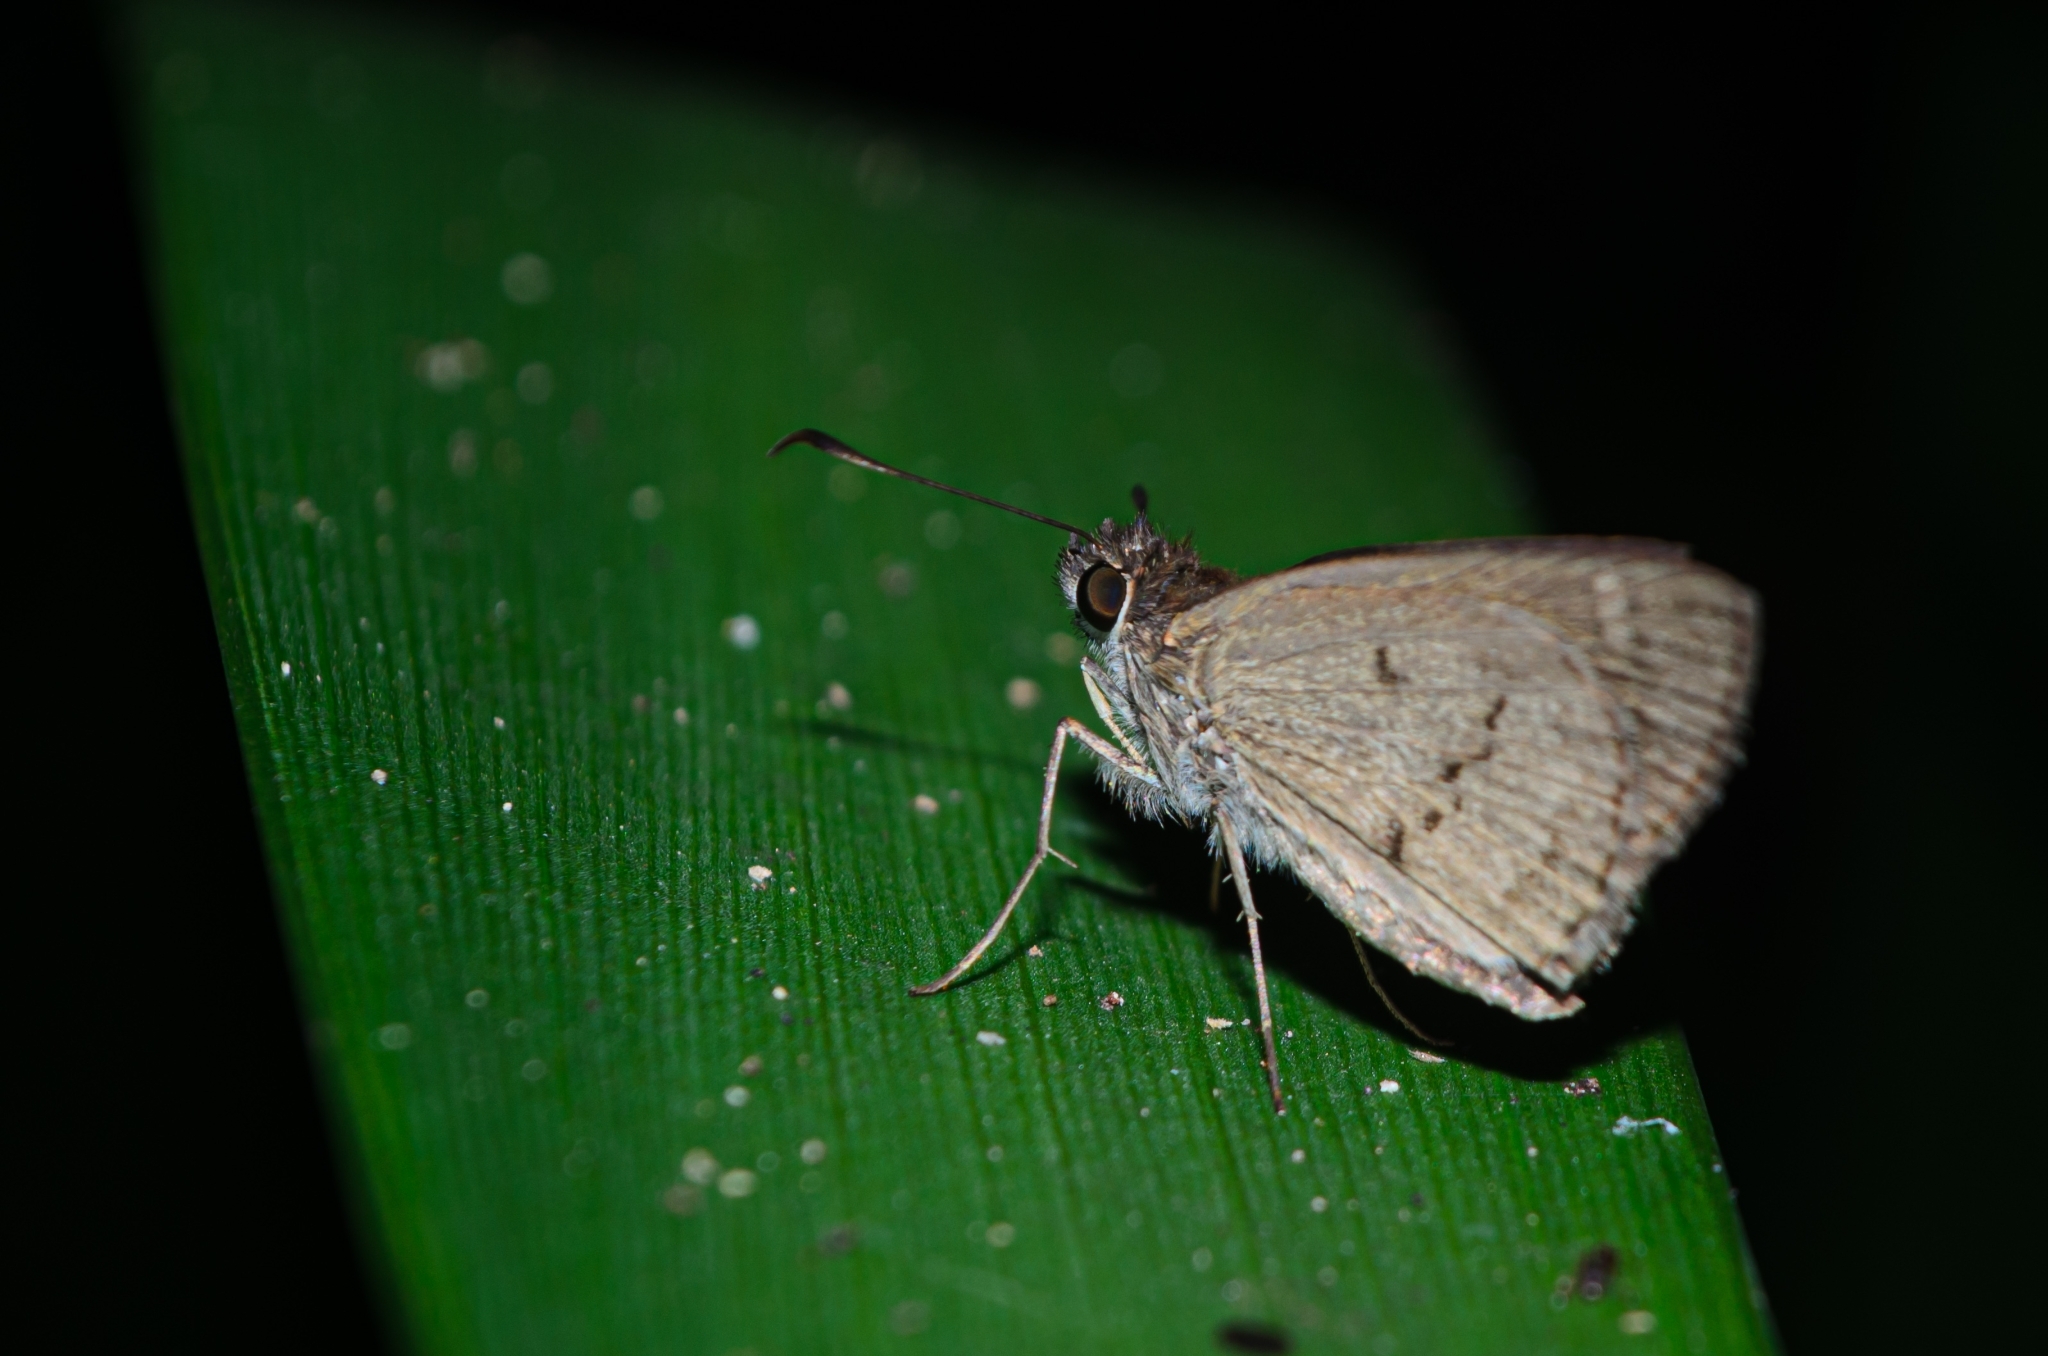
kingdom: Animalia
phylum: Arthropoda
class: Insecta
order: Lepidoptera
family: Hesperiidae
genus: Cymaenes
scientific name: Cymaenes gisca
